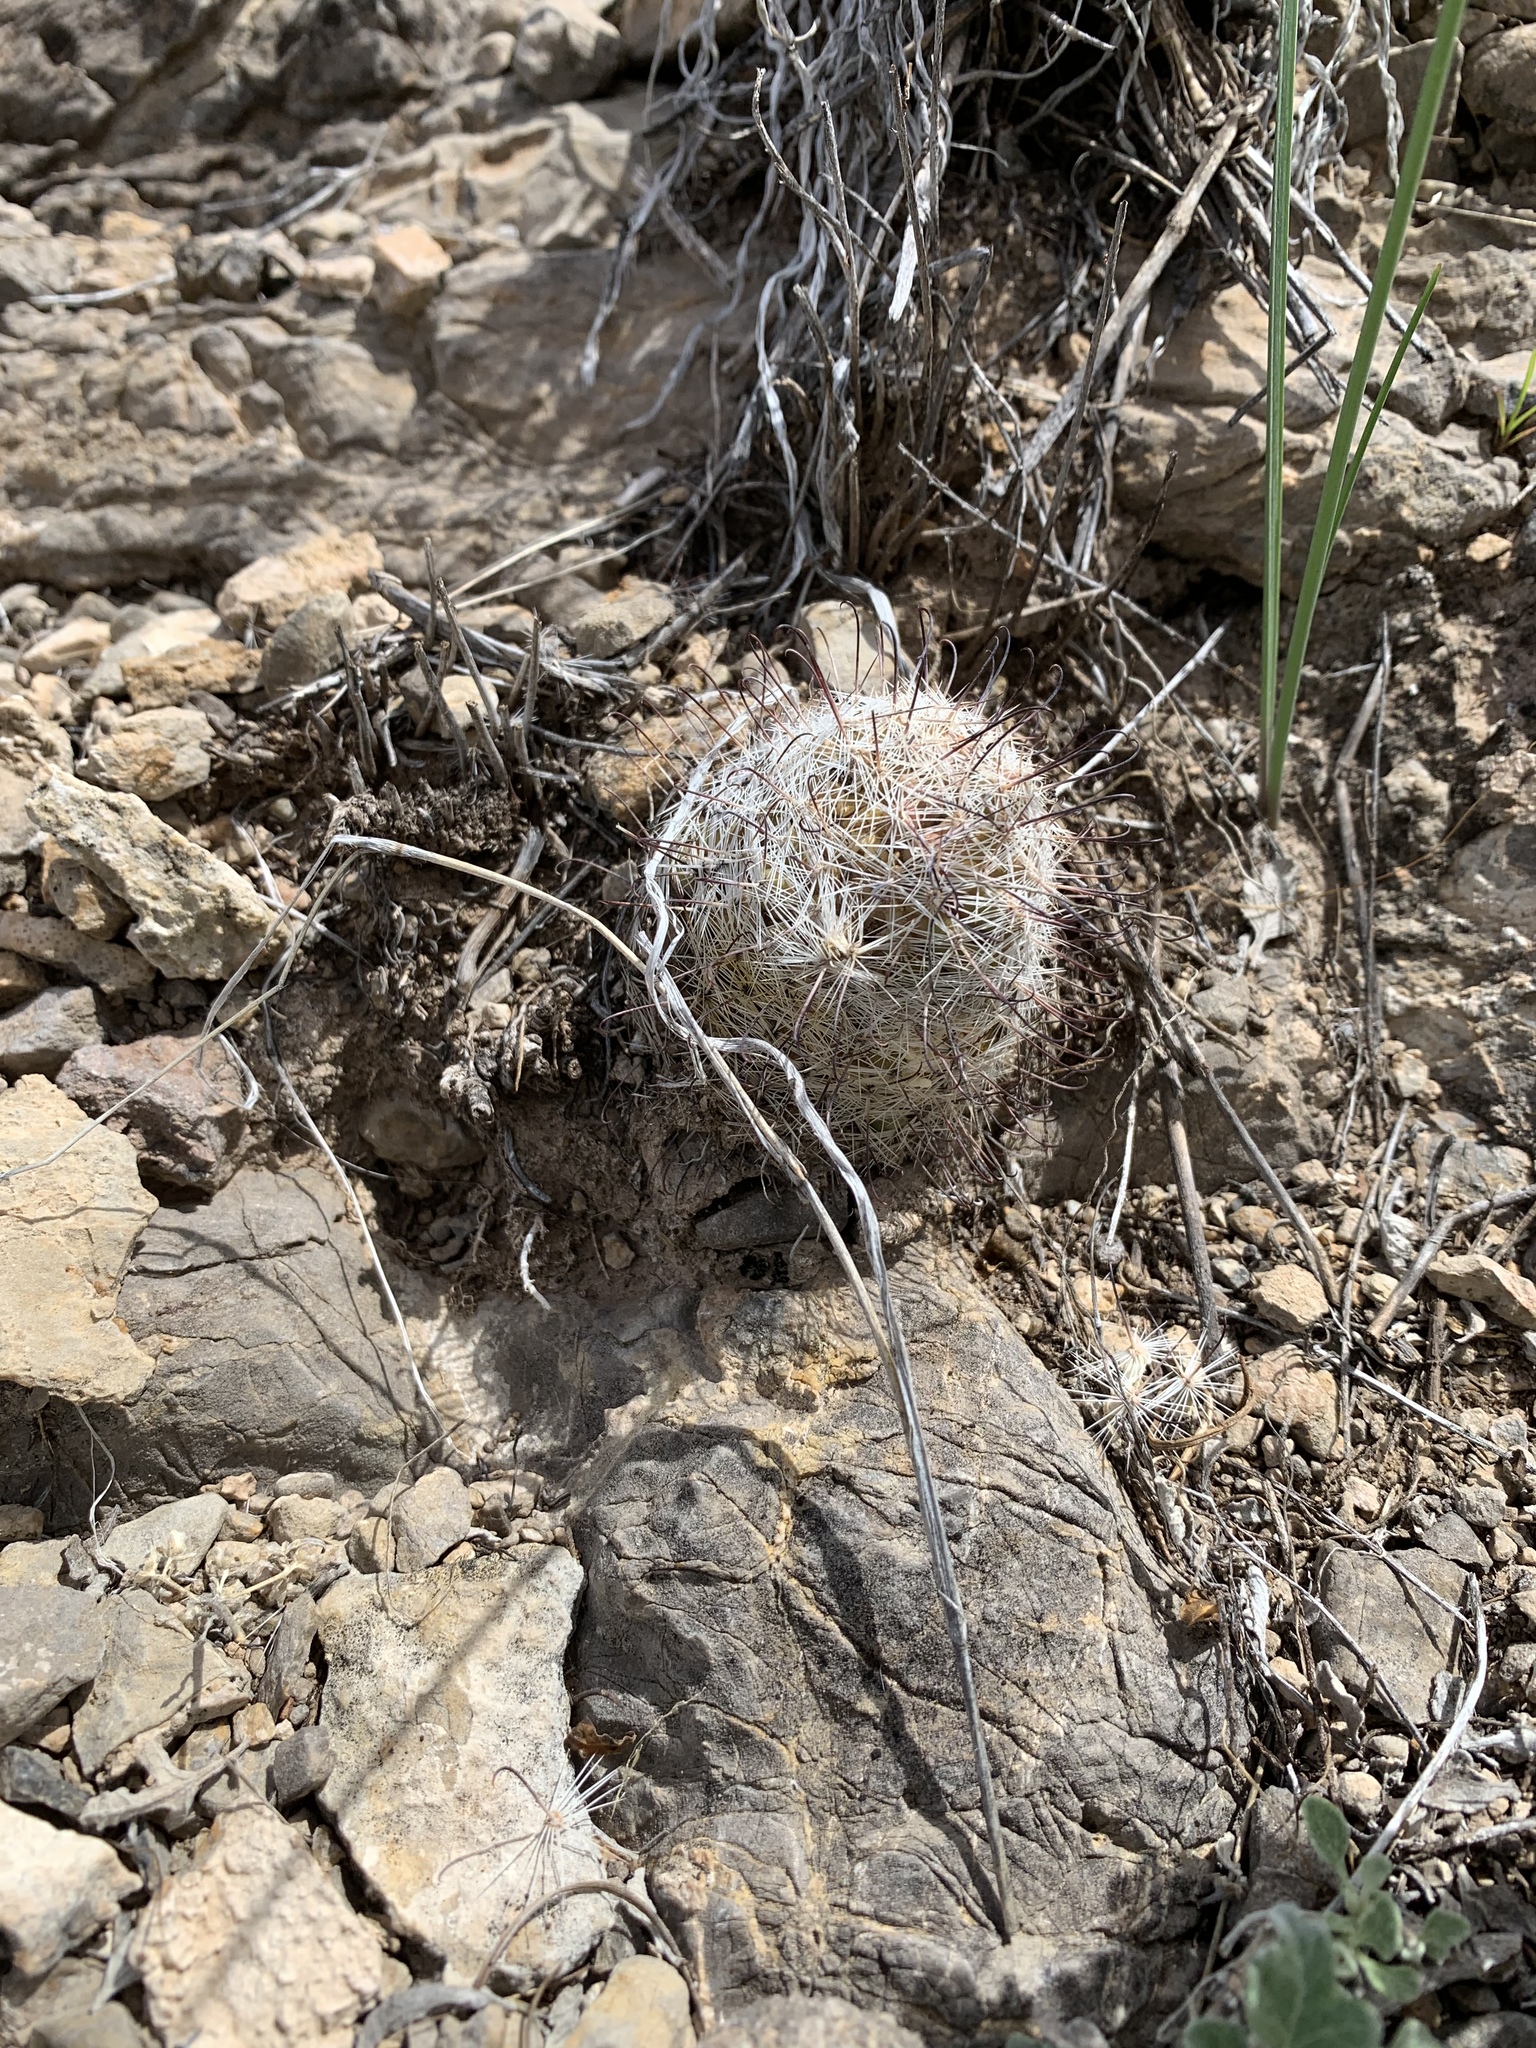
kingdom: Plantae
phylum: Tracheophyta
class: Magnoliopsida
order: Caryophyllales
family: Cactaceae
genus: Cochemiea
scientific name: Cochemiea grahamii
